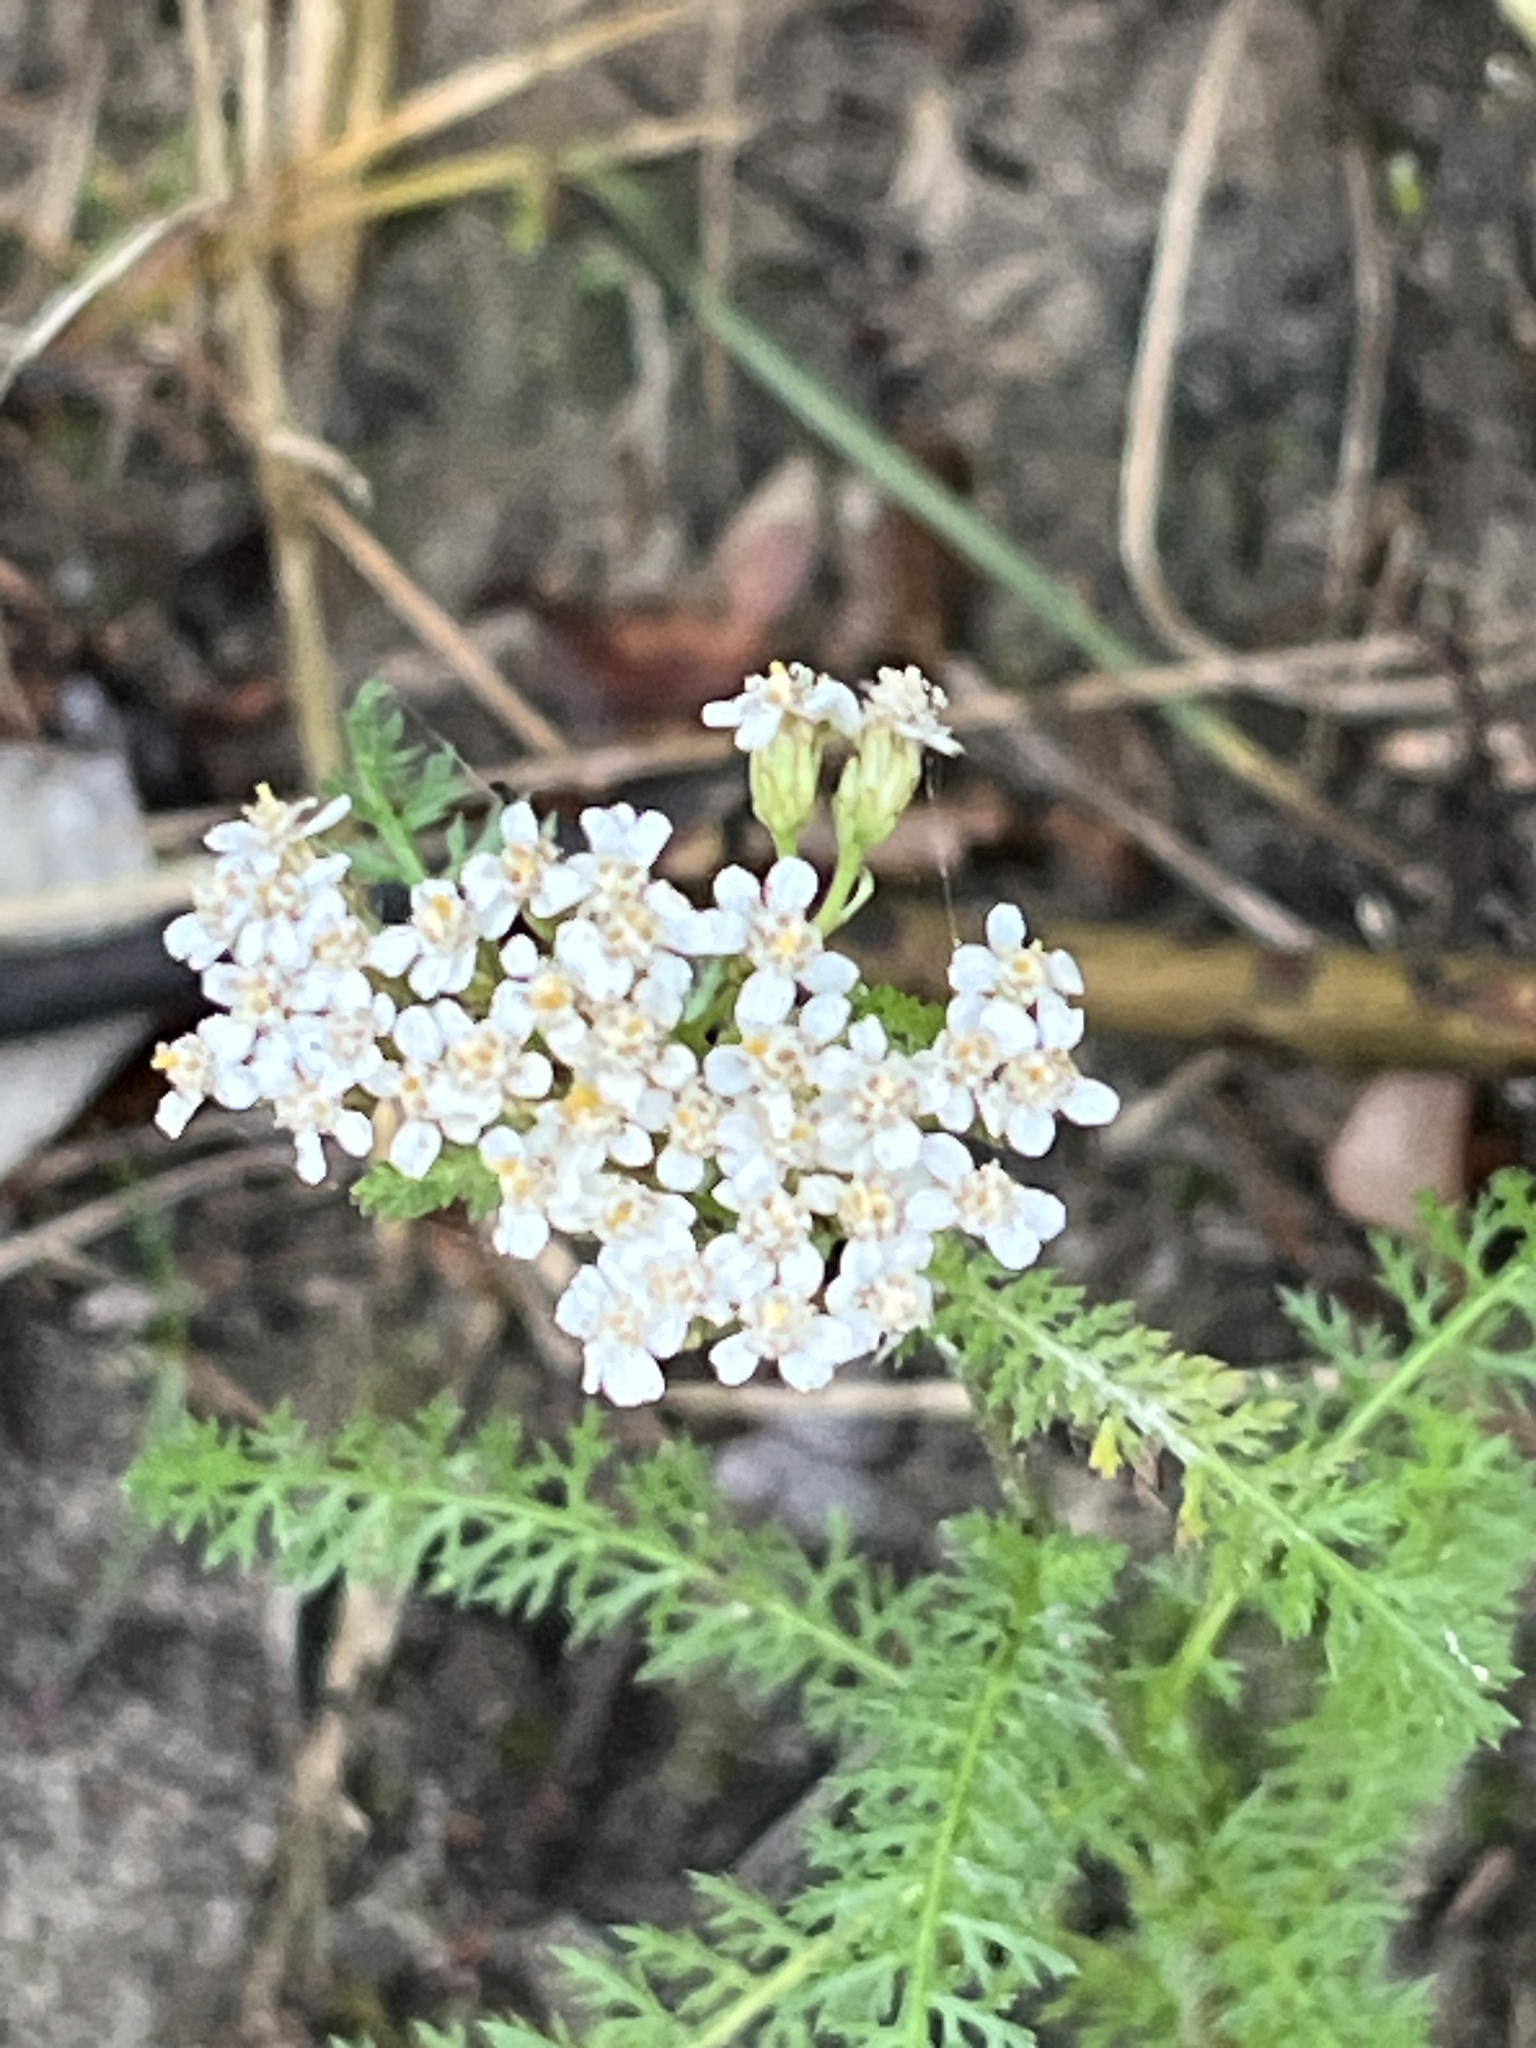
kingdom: Plantae
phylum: Tracheophyta
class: Magnoliopsida
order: Asterales
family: Asteraceae
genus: Achillea
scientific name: Achillea millefolium
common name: Yarrow
